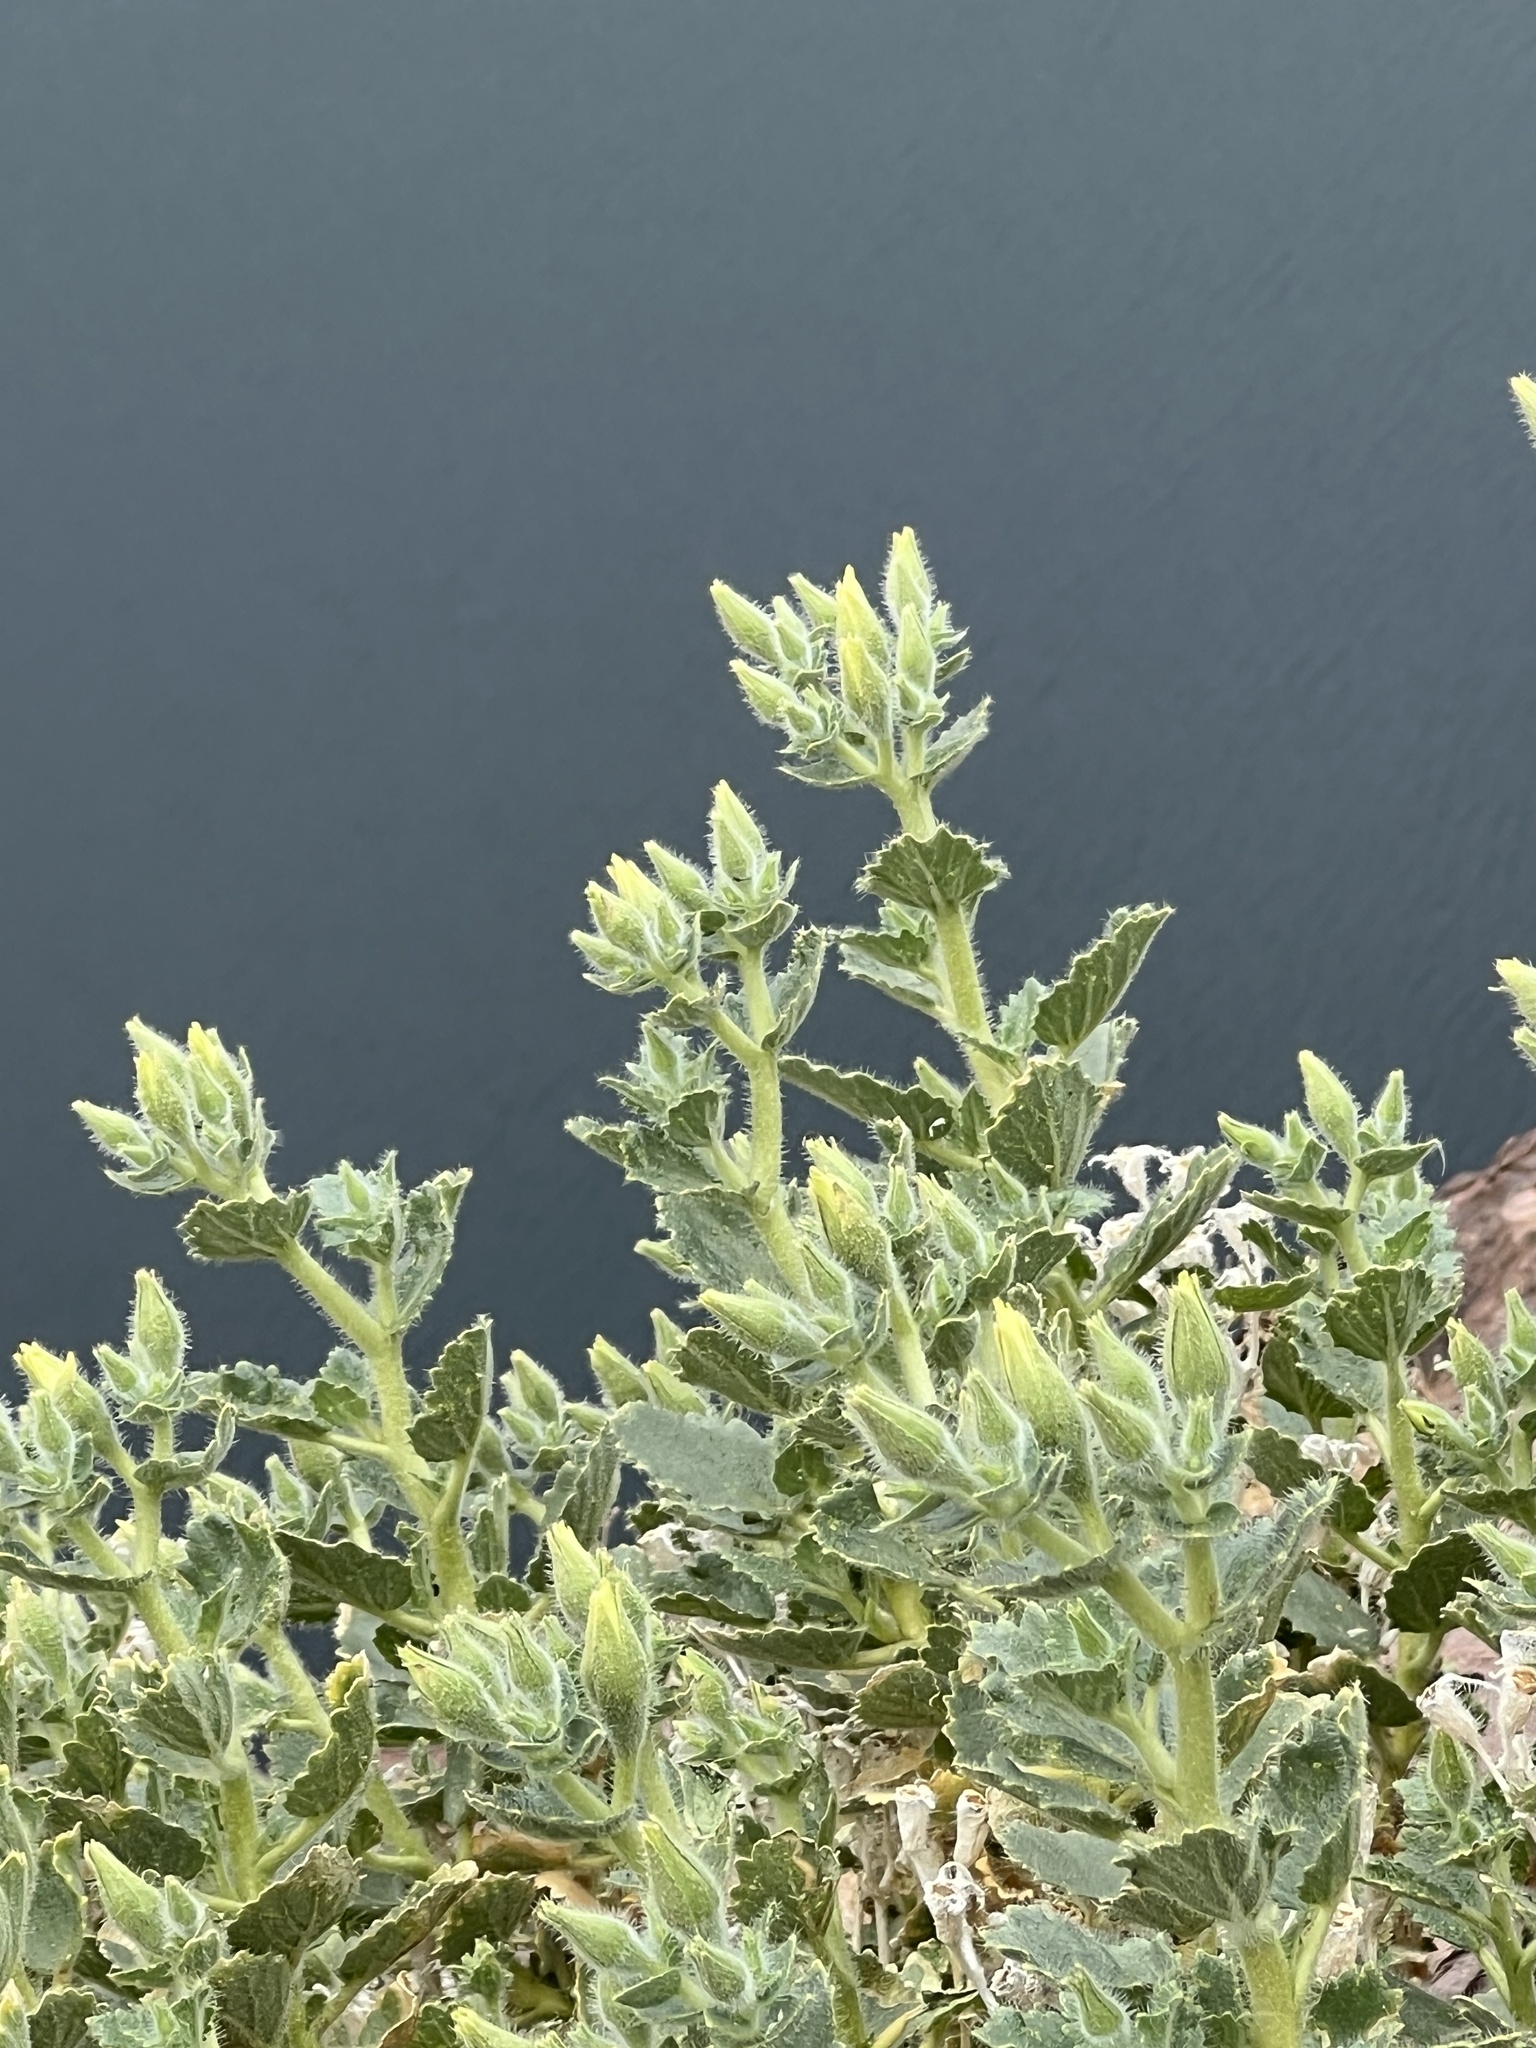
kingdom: Plantae
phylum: Tracheophyta
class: Magnoliopsida
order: Cornales
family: Loasaceae
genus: Eucnide
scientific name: Eucnide urens
